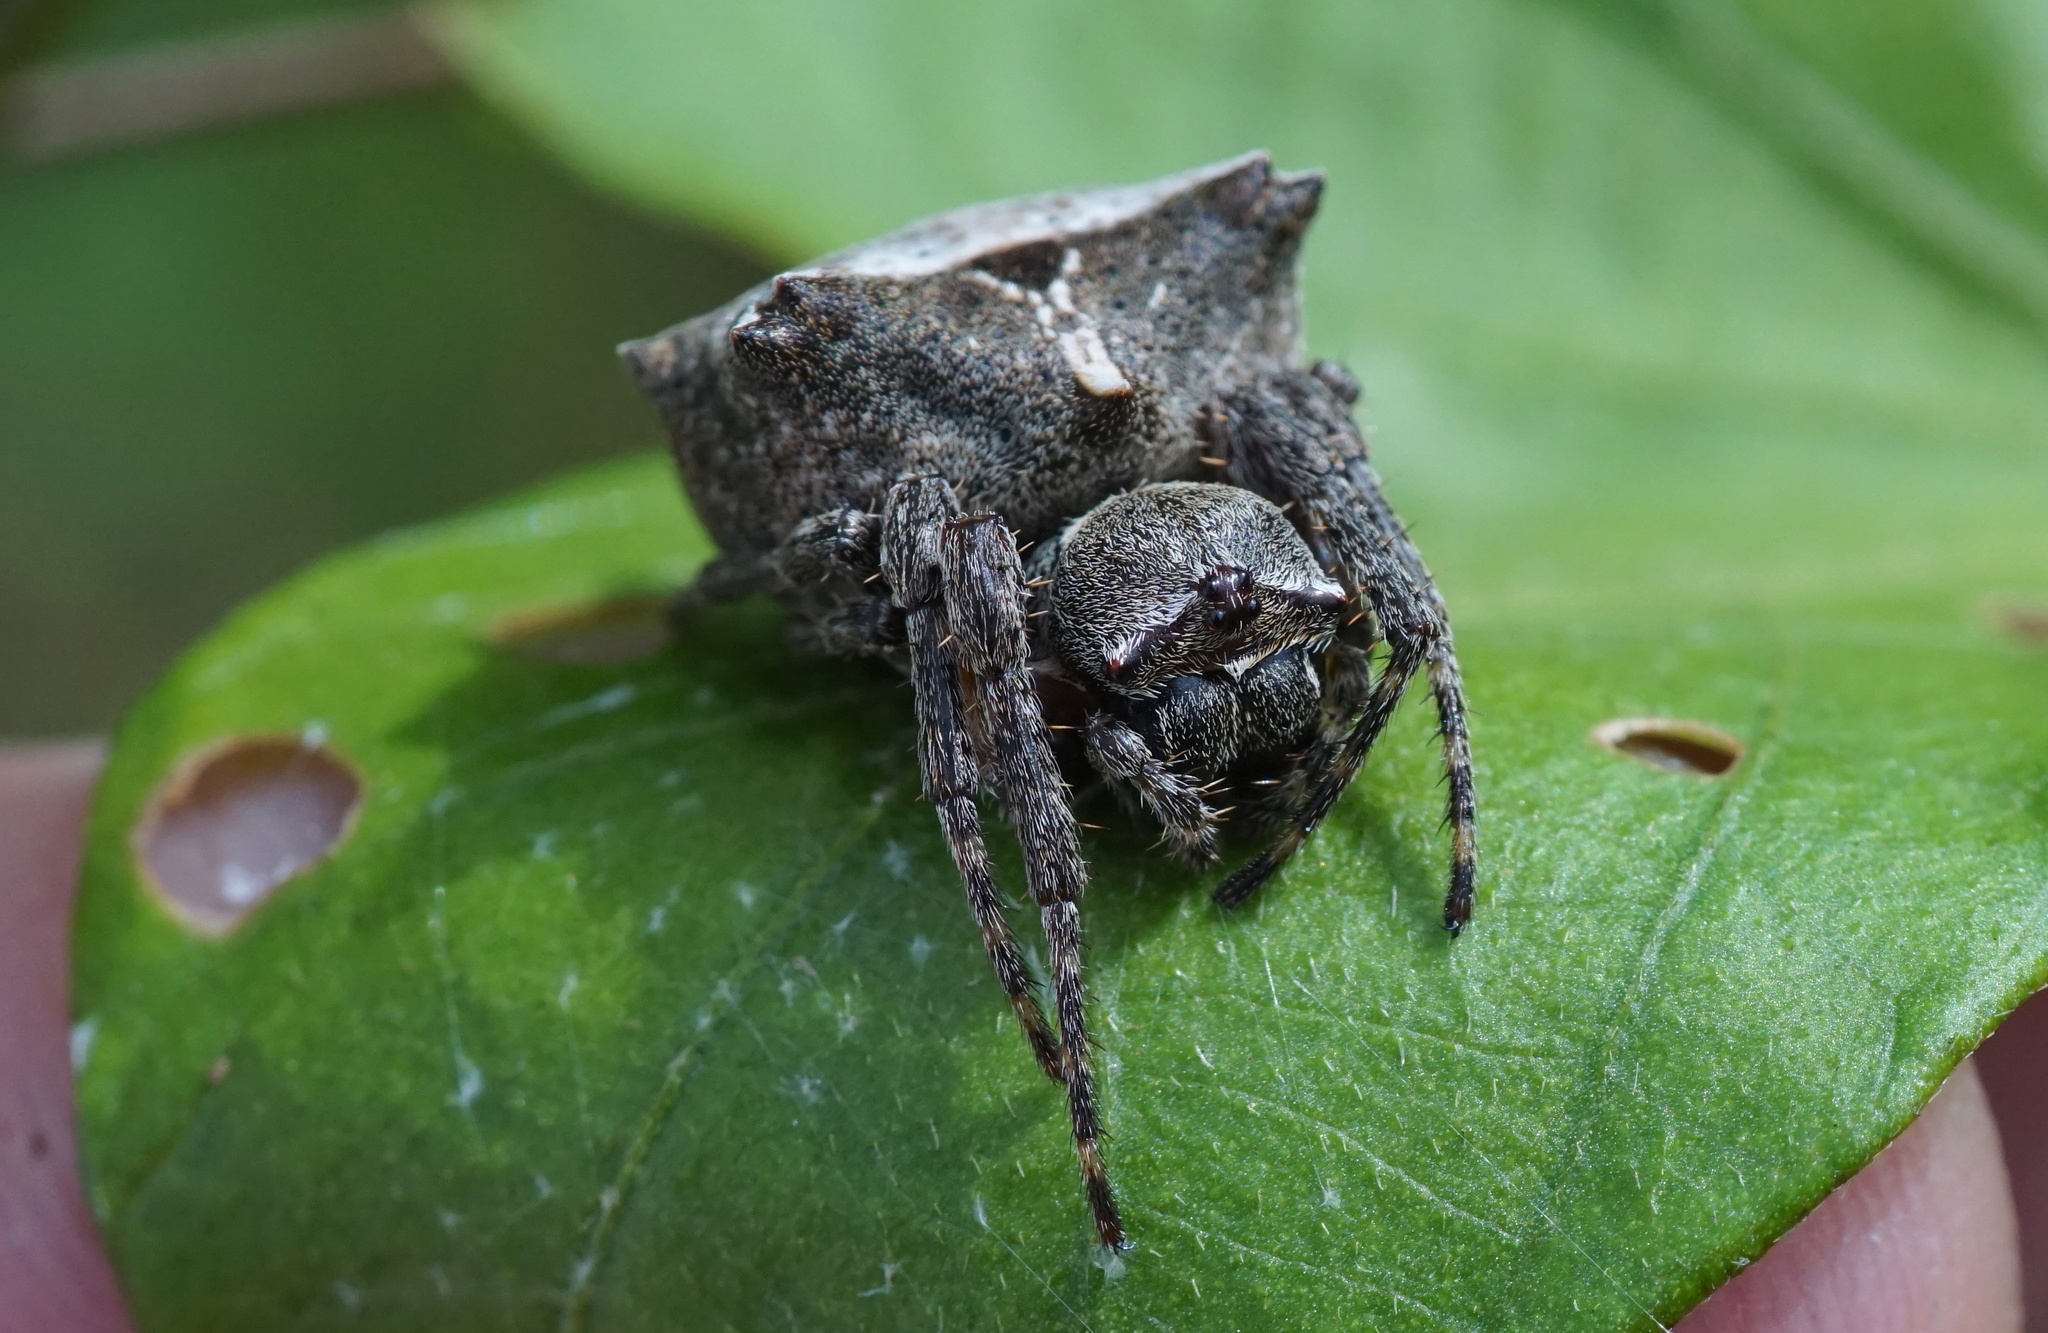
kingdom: Animalia
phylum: Arthropoda
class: Arachnida
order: Araneae
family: Araneidae
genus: Acanthepeira
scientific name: Acanthepeira stellata
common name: Starbellied orbweaver
